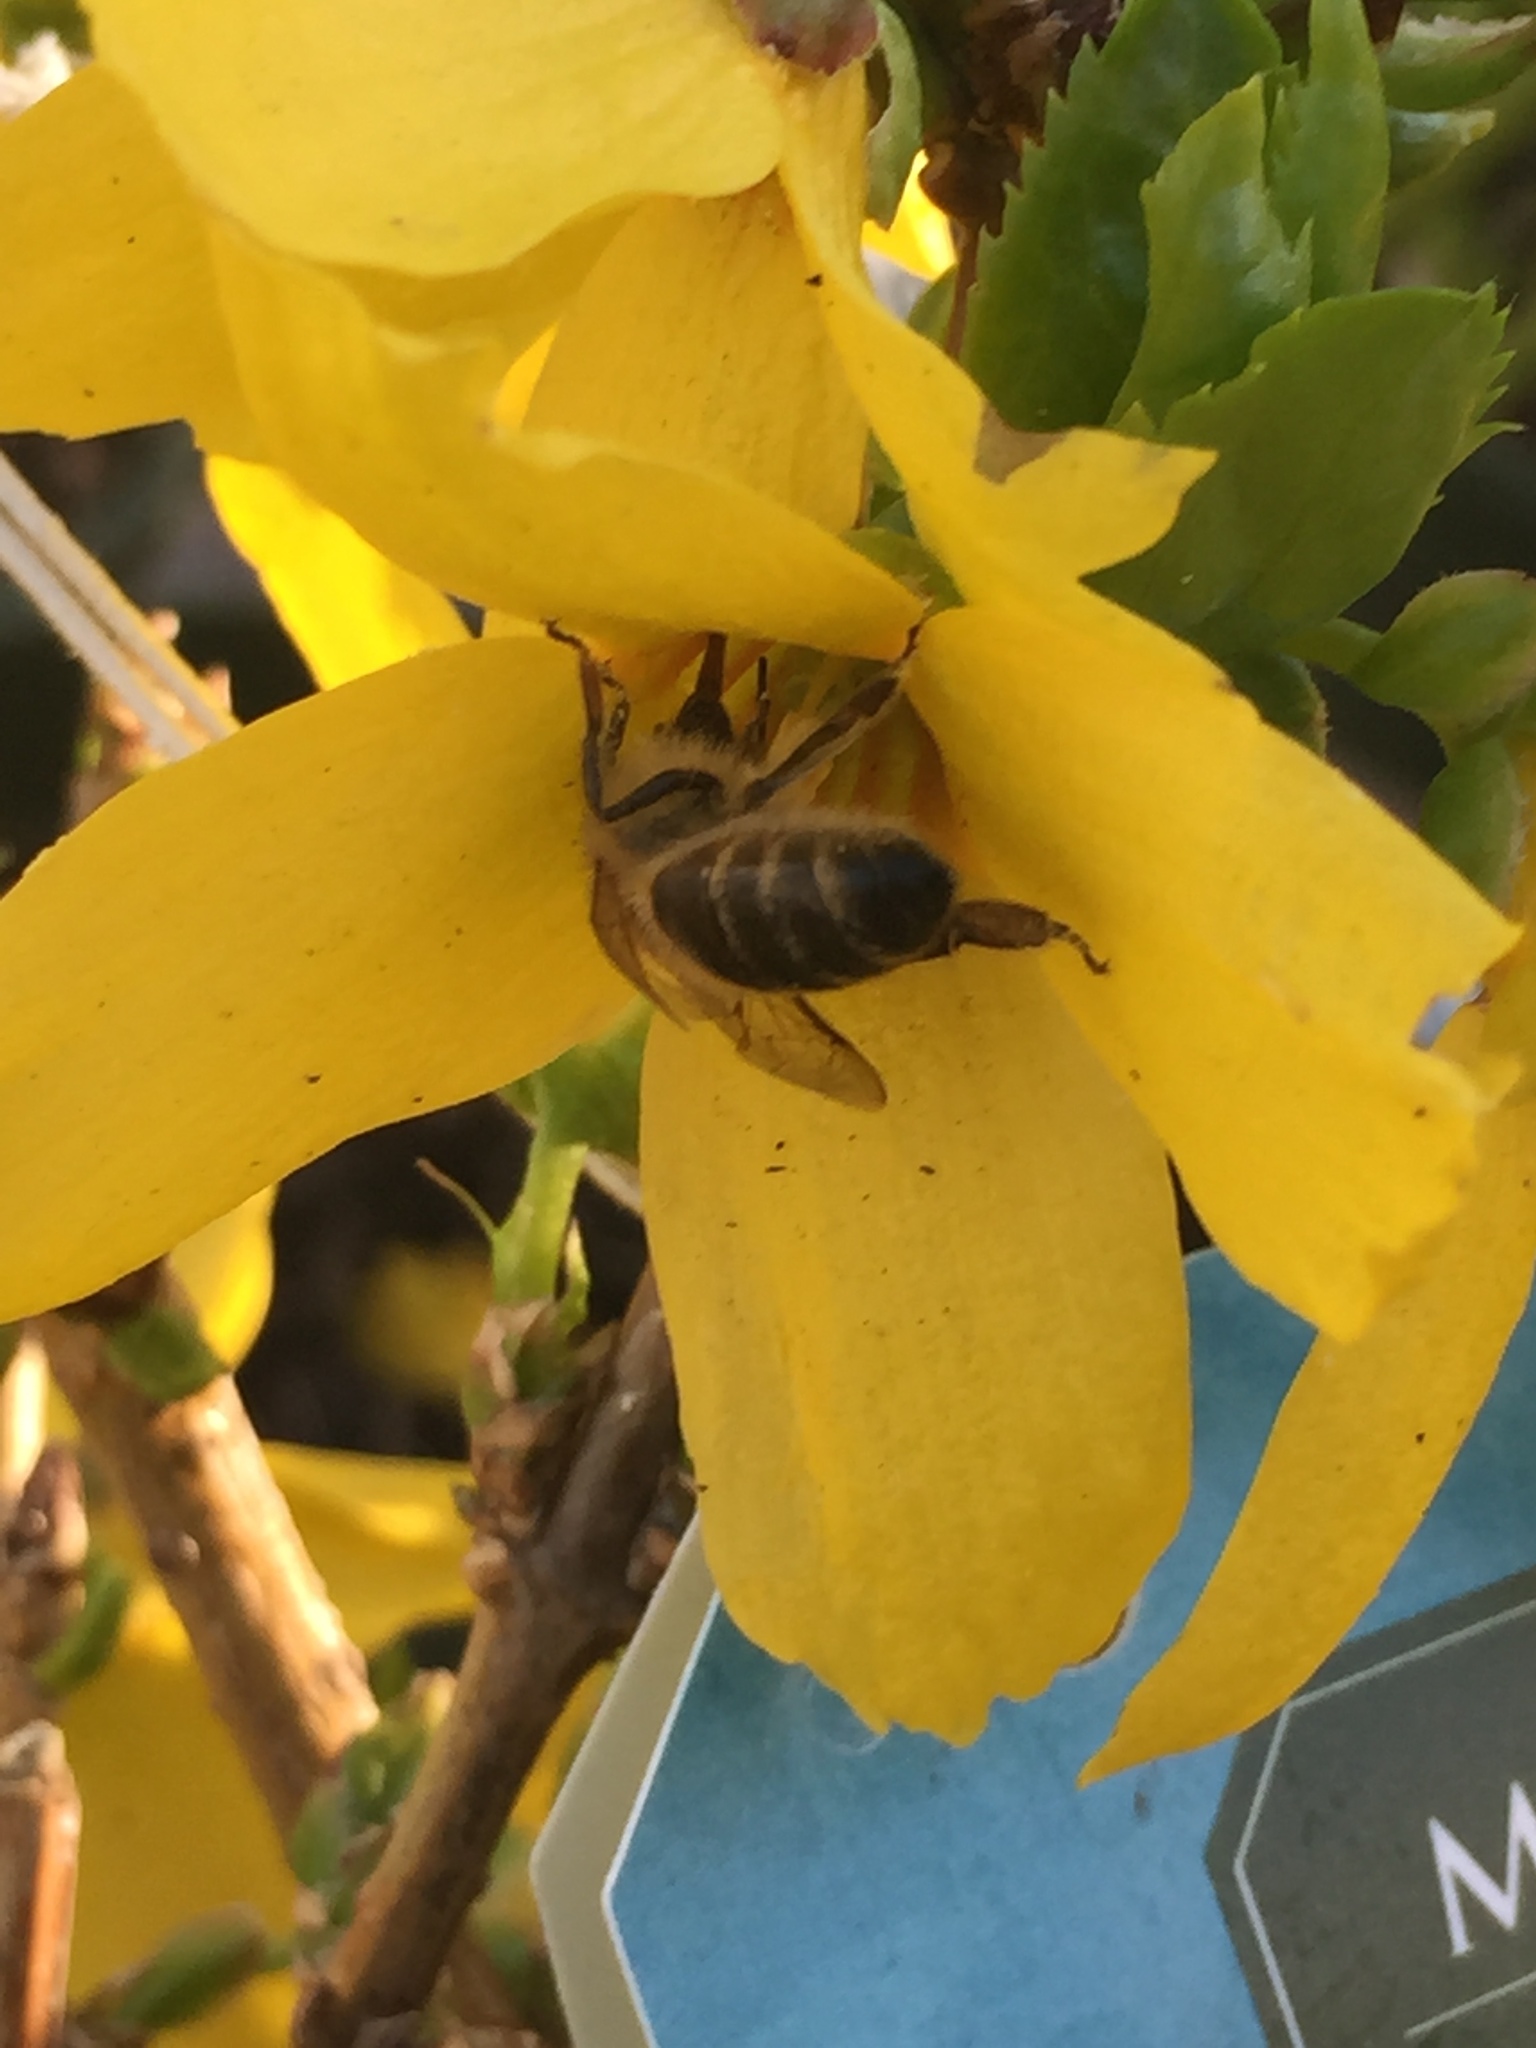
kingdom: Animalia
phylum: Arthropoda
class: Insecta
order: Hymenoptera
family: Apidae
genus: Apis
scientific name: Apis mellifera
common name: Honey bee
